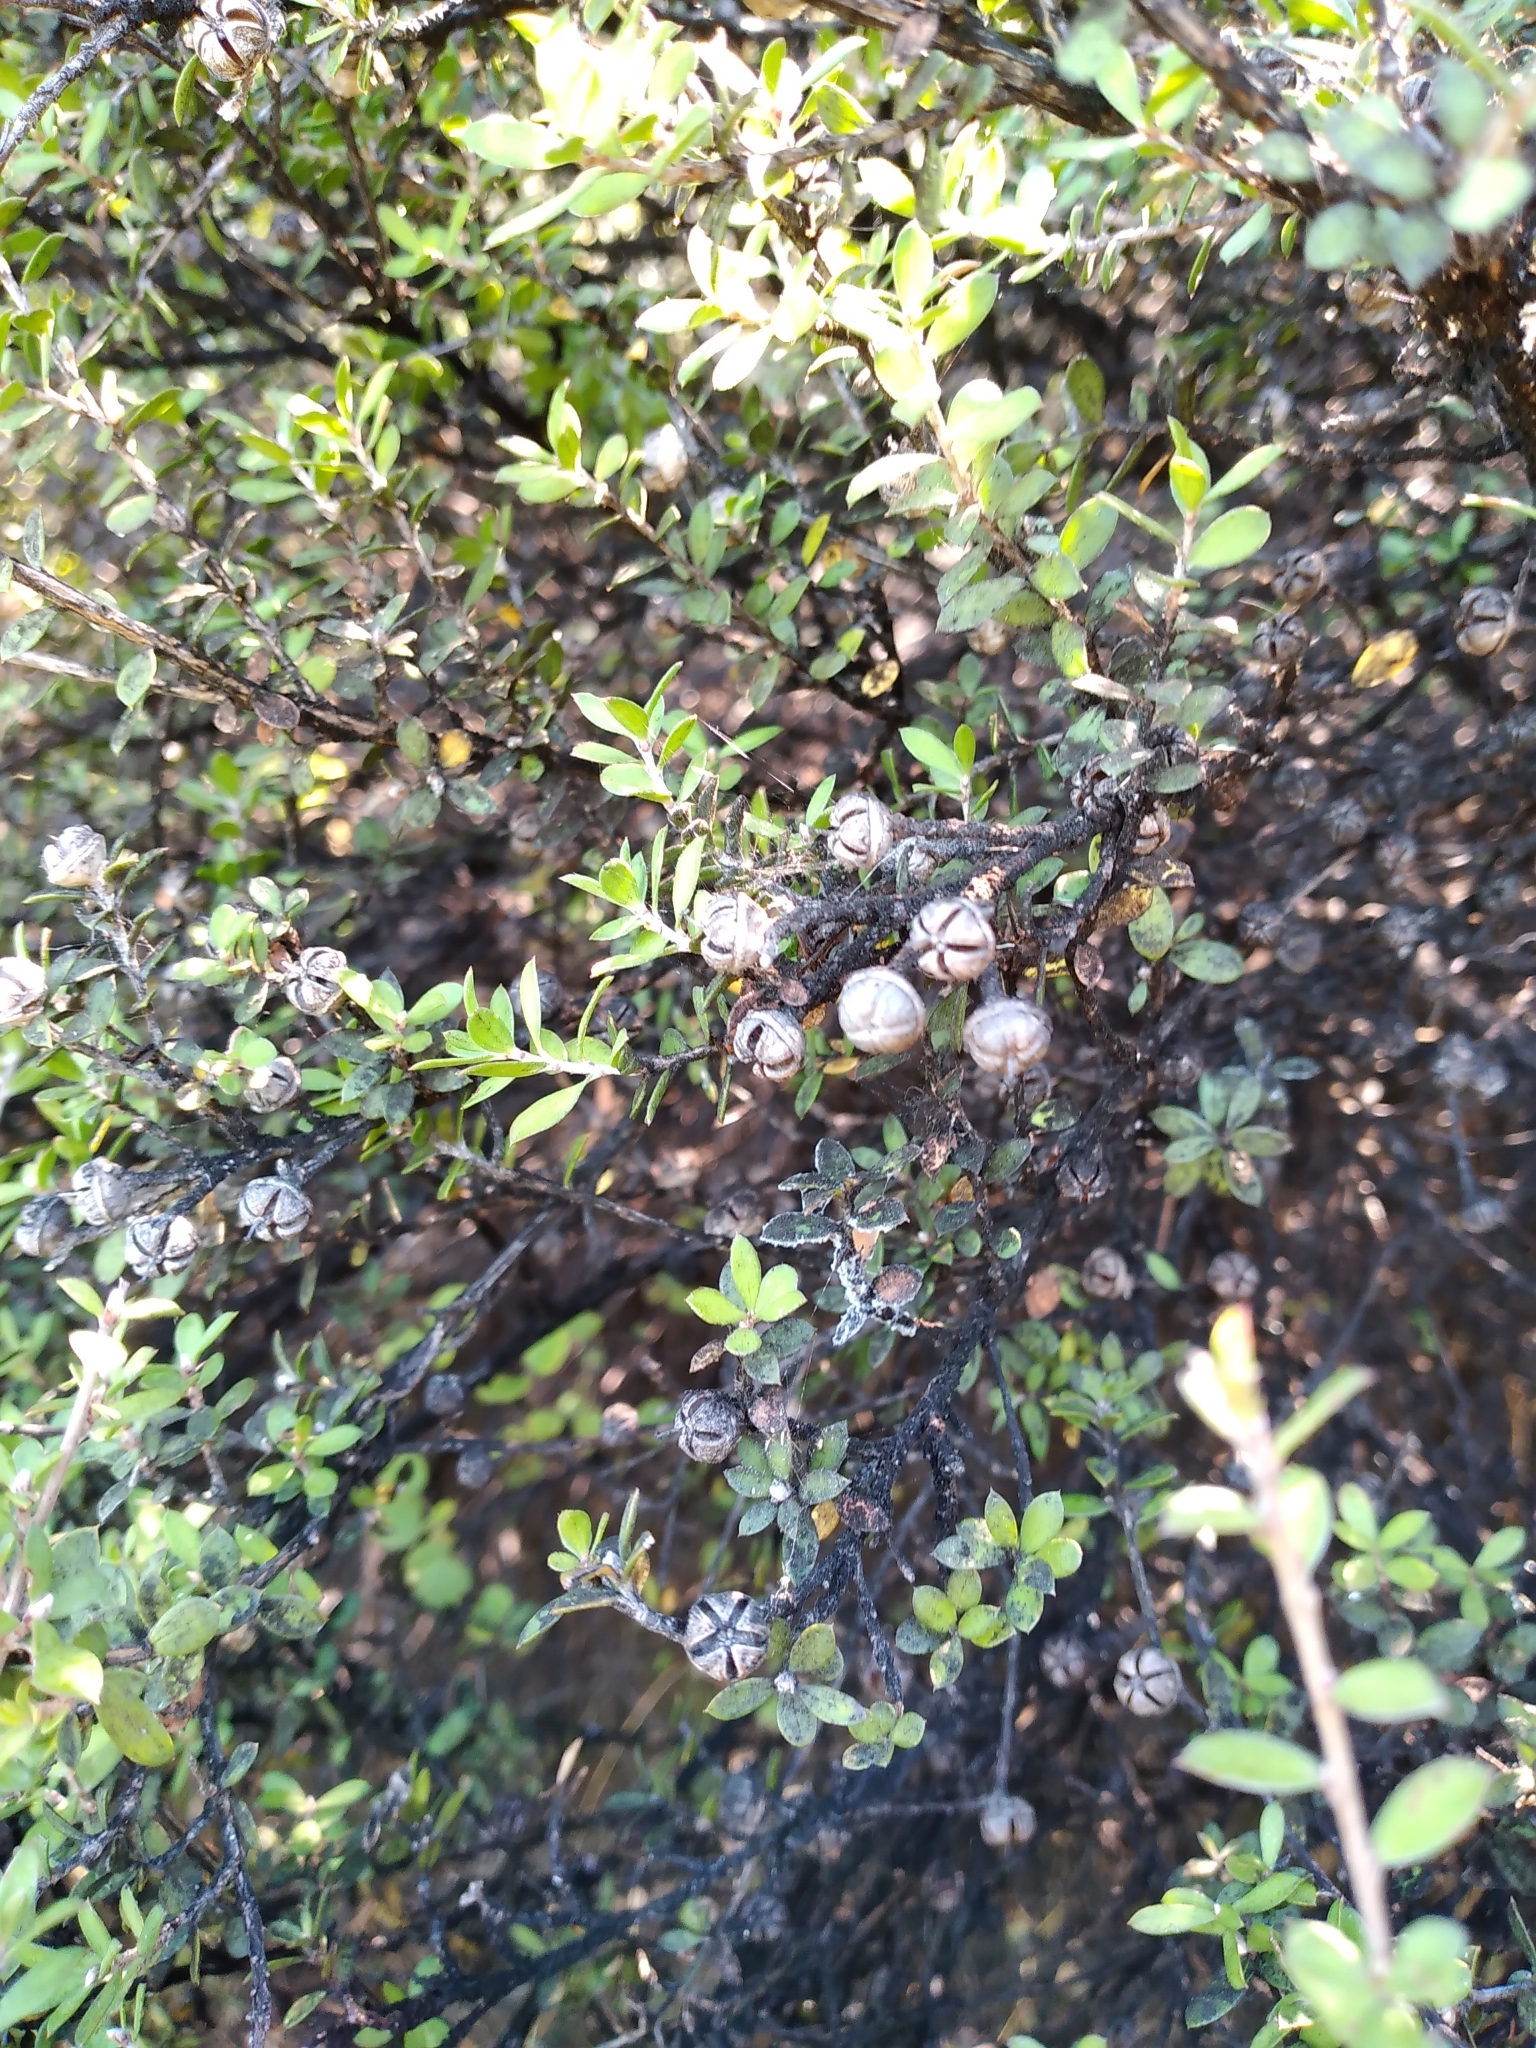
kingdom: Plantae
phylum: Tracheophyta
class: Magnoliopsida
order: Myrtales
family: Myrtaceae
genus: Leptospermum
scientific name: Leptospermum scoparium
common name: Broom tea-tree
